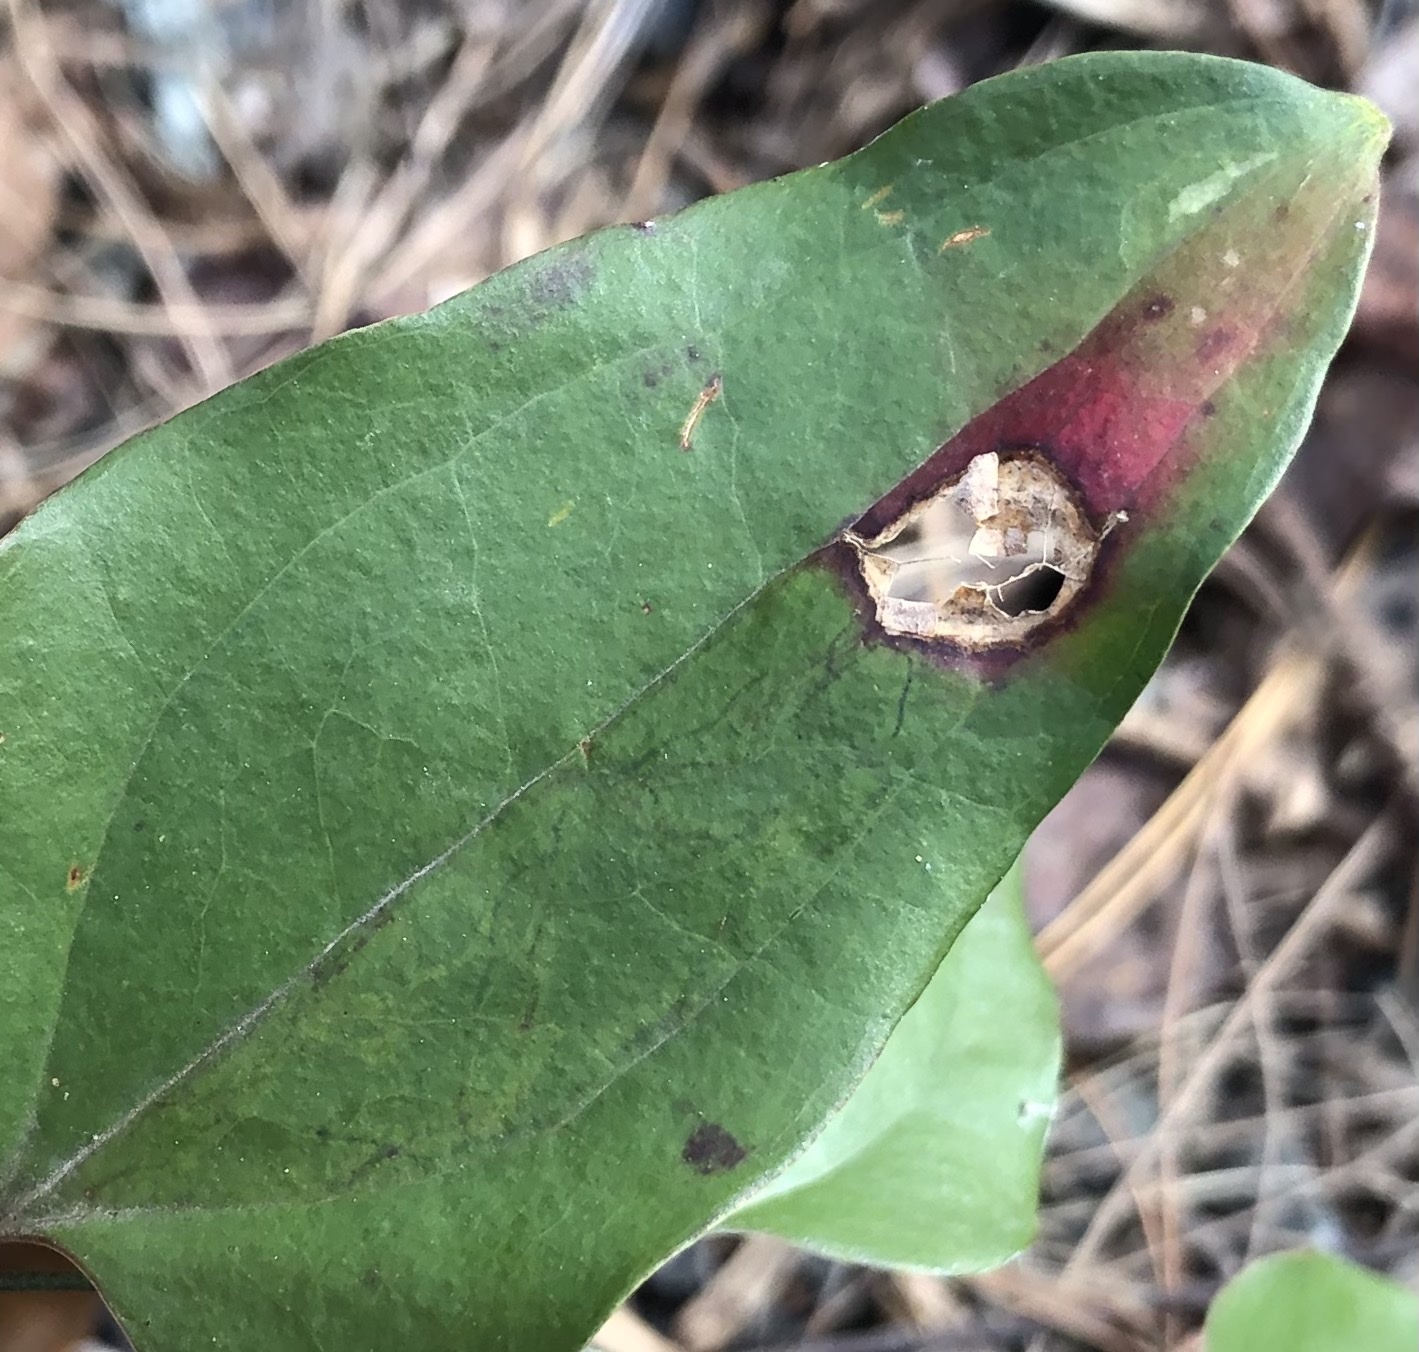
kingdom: Animalia
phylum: Arthropoda
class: Insecta
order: Lepidoptera
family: Gracillariidae
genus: Marmara
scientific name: Marmara smilacisella
